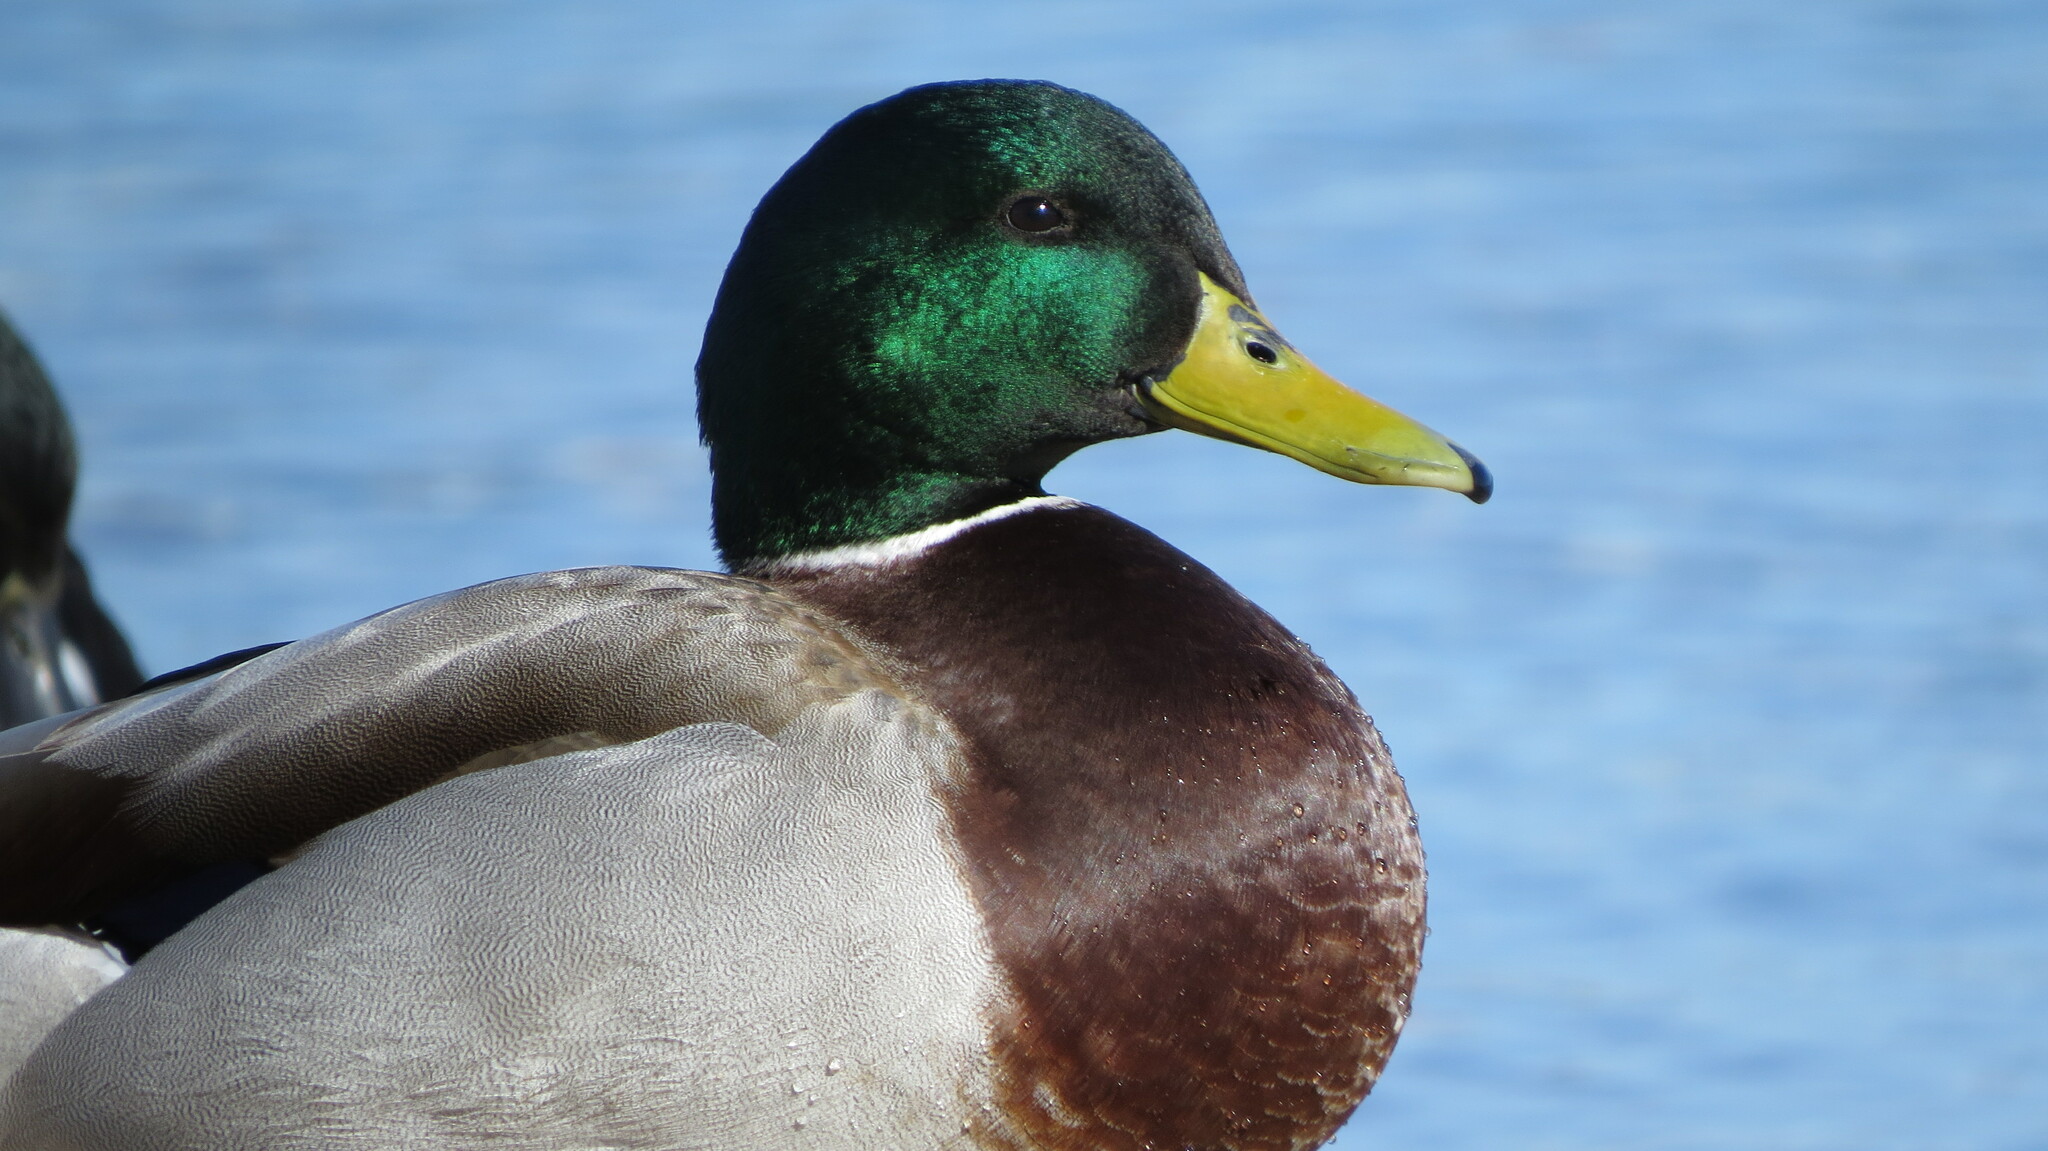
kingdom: Animalia
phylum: Chordata
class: Aves
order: Anseriformes
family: Anatidae
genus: Anas
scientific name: Anas platyrhynchos
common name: Mallard
